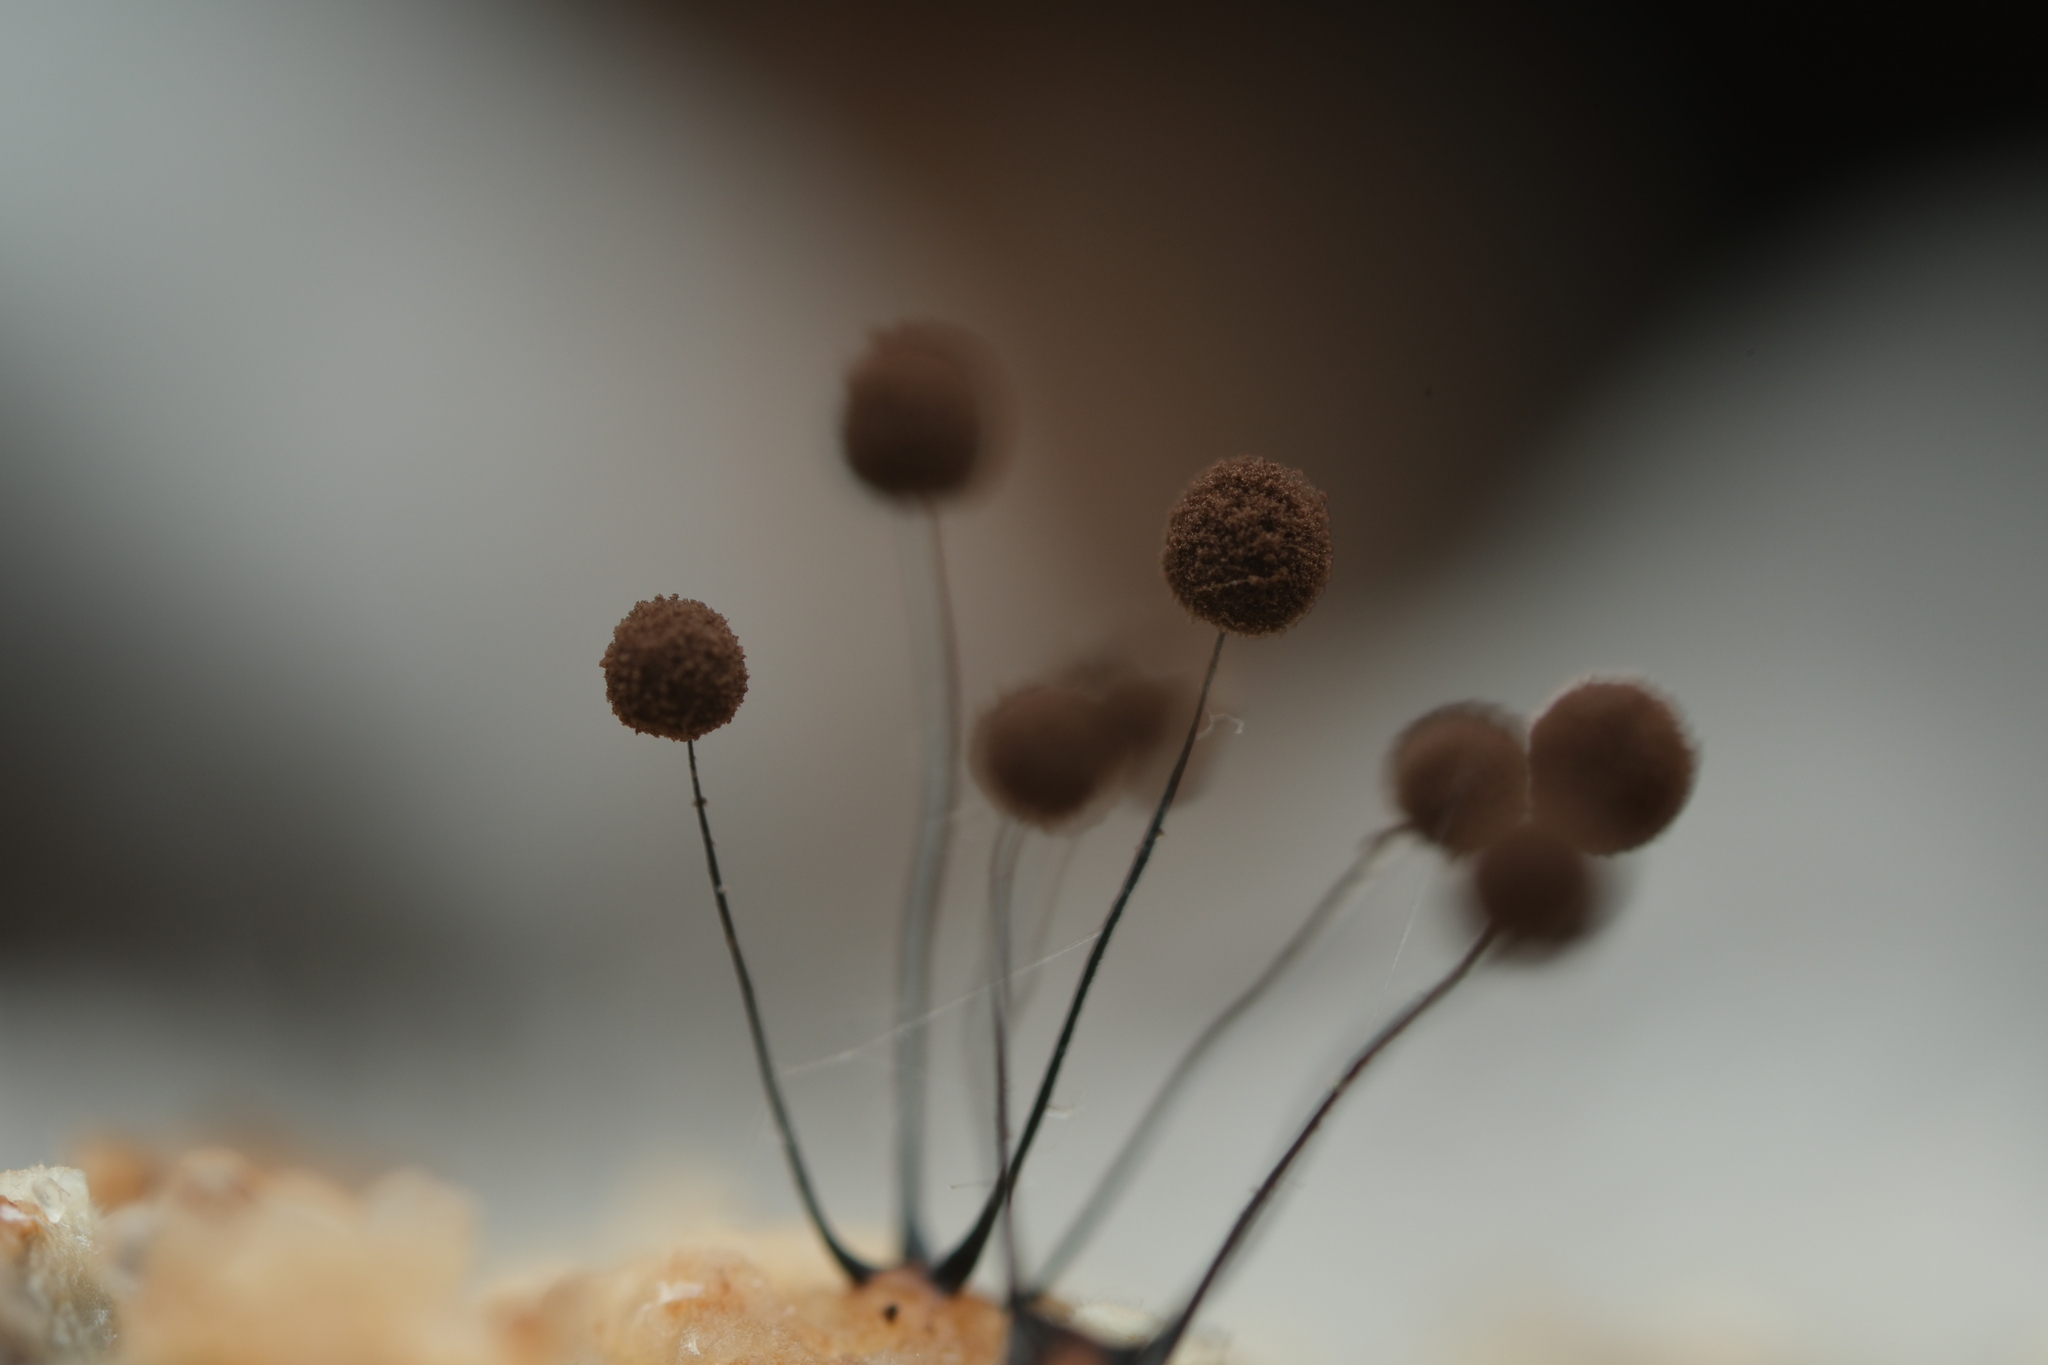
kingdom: Protozoa
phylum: Mycetozoa
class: Myxomycetes
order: Stemonitidales
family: Stemonitidaceae
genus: Comatricha
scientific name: Comatricha nigra
